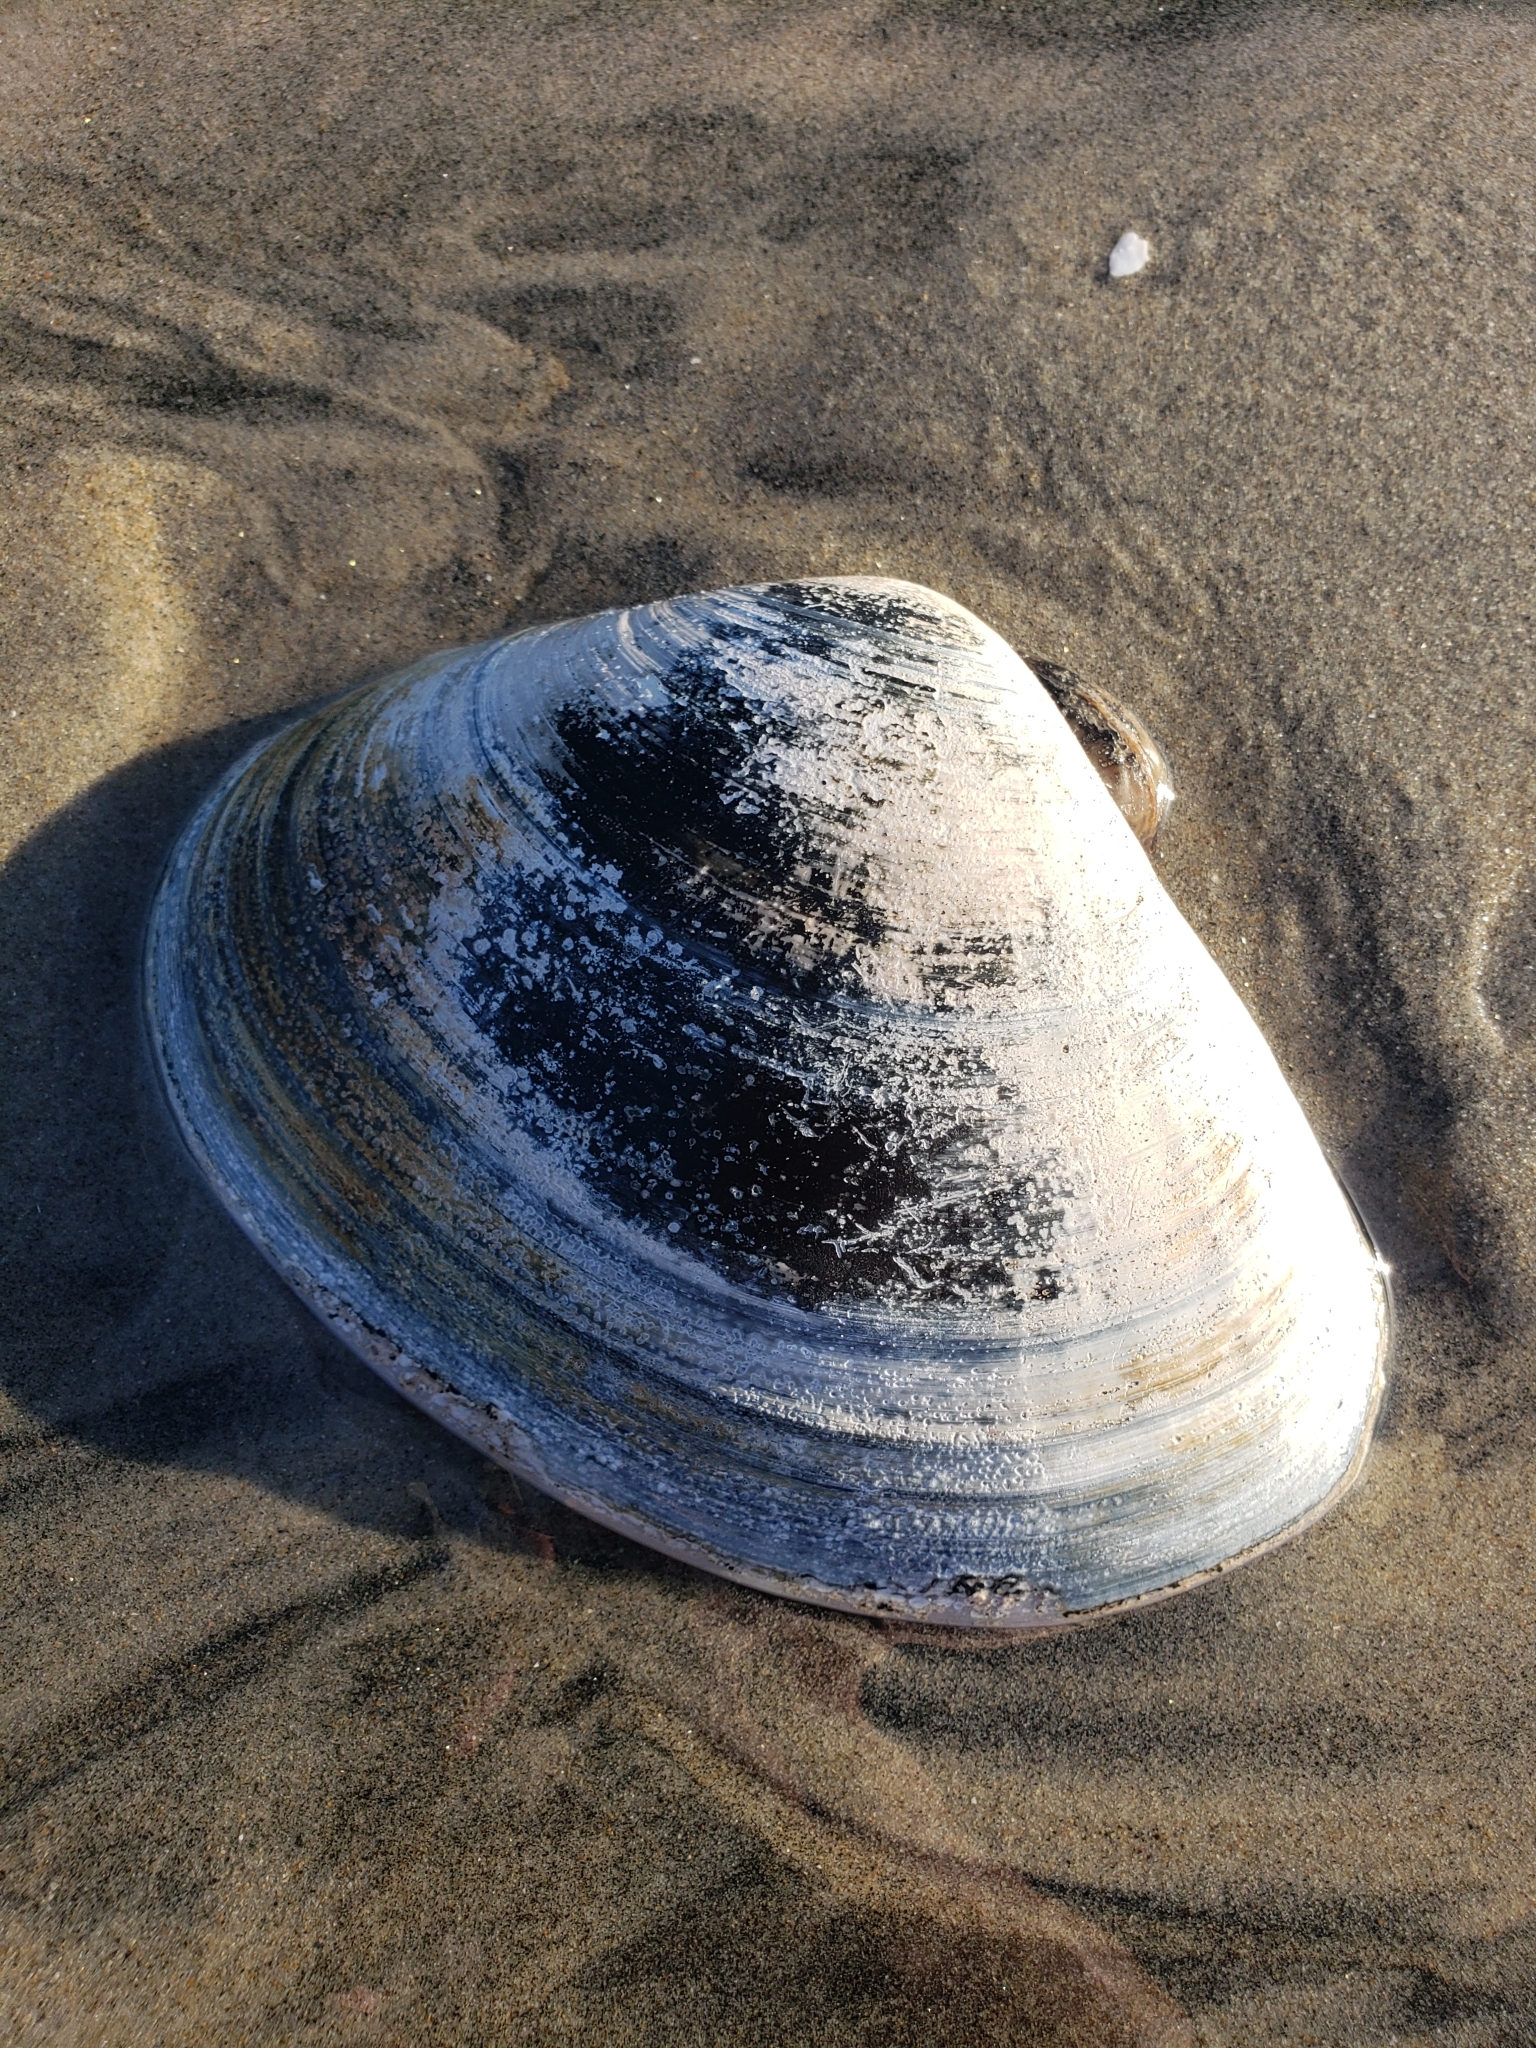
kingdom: Animalia
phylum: Mollusca
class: Bivalvia
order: Venerida
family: Veneridae
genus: Tivela
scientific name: Tivela stultorum
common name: Pismo clam
